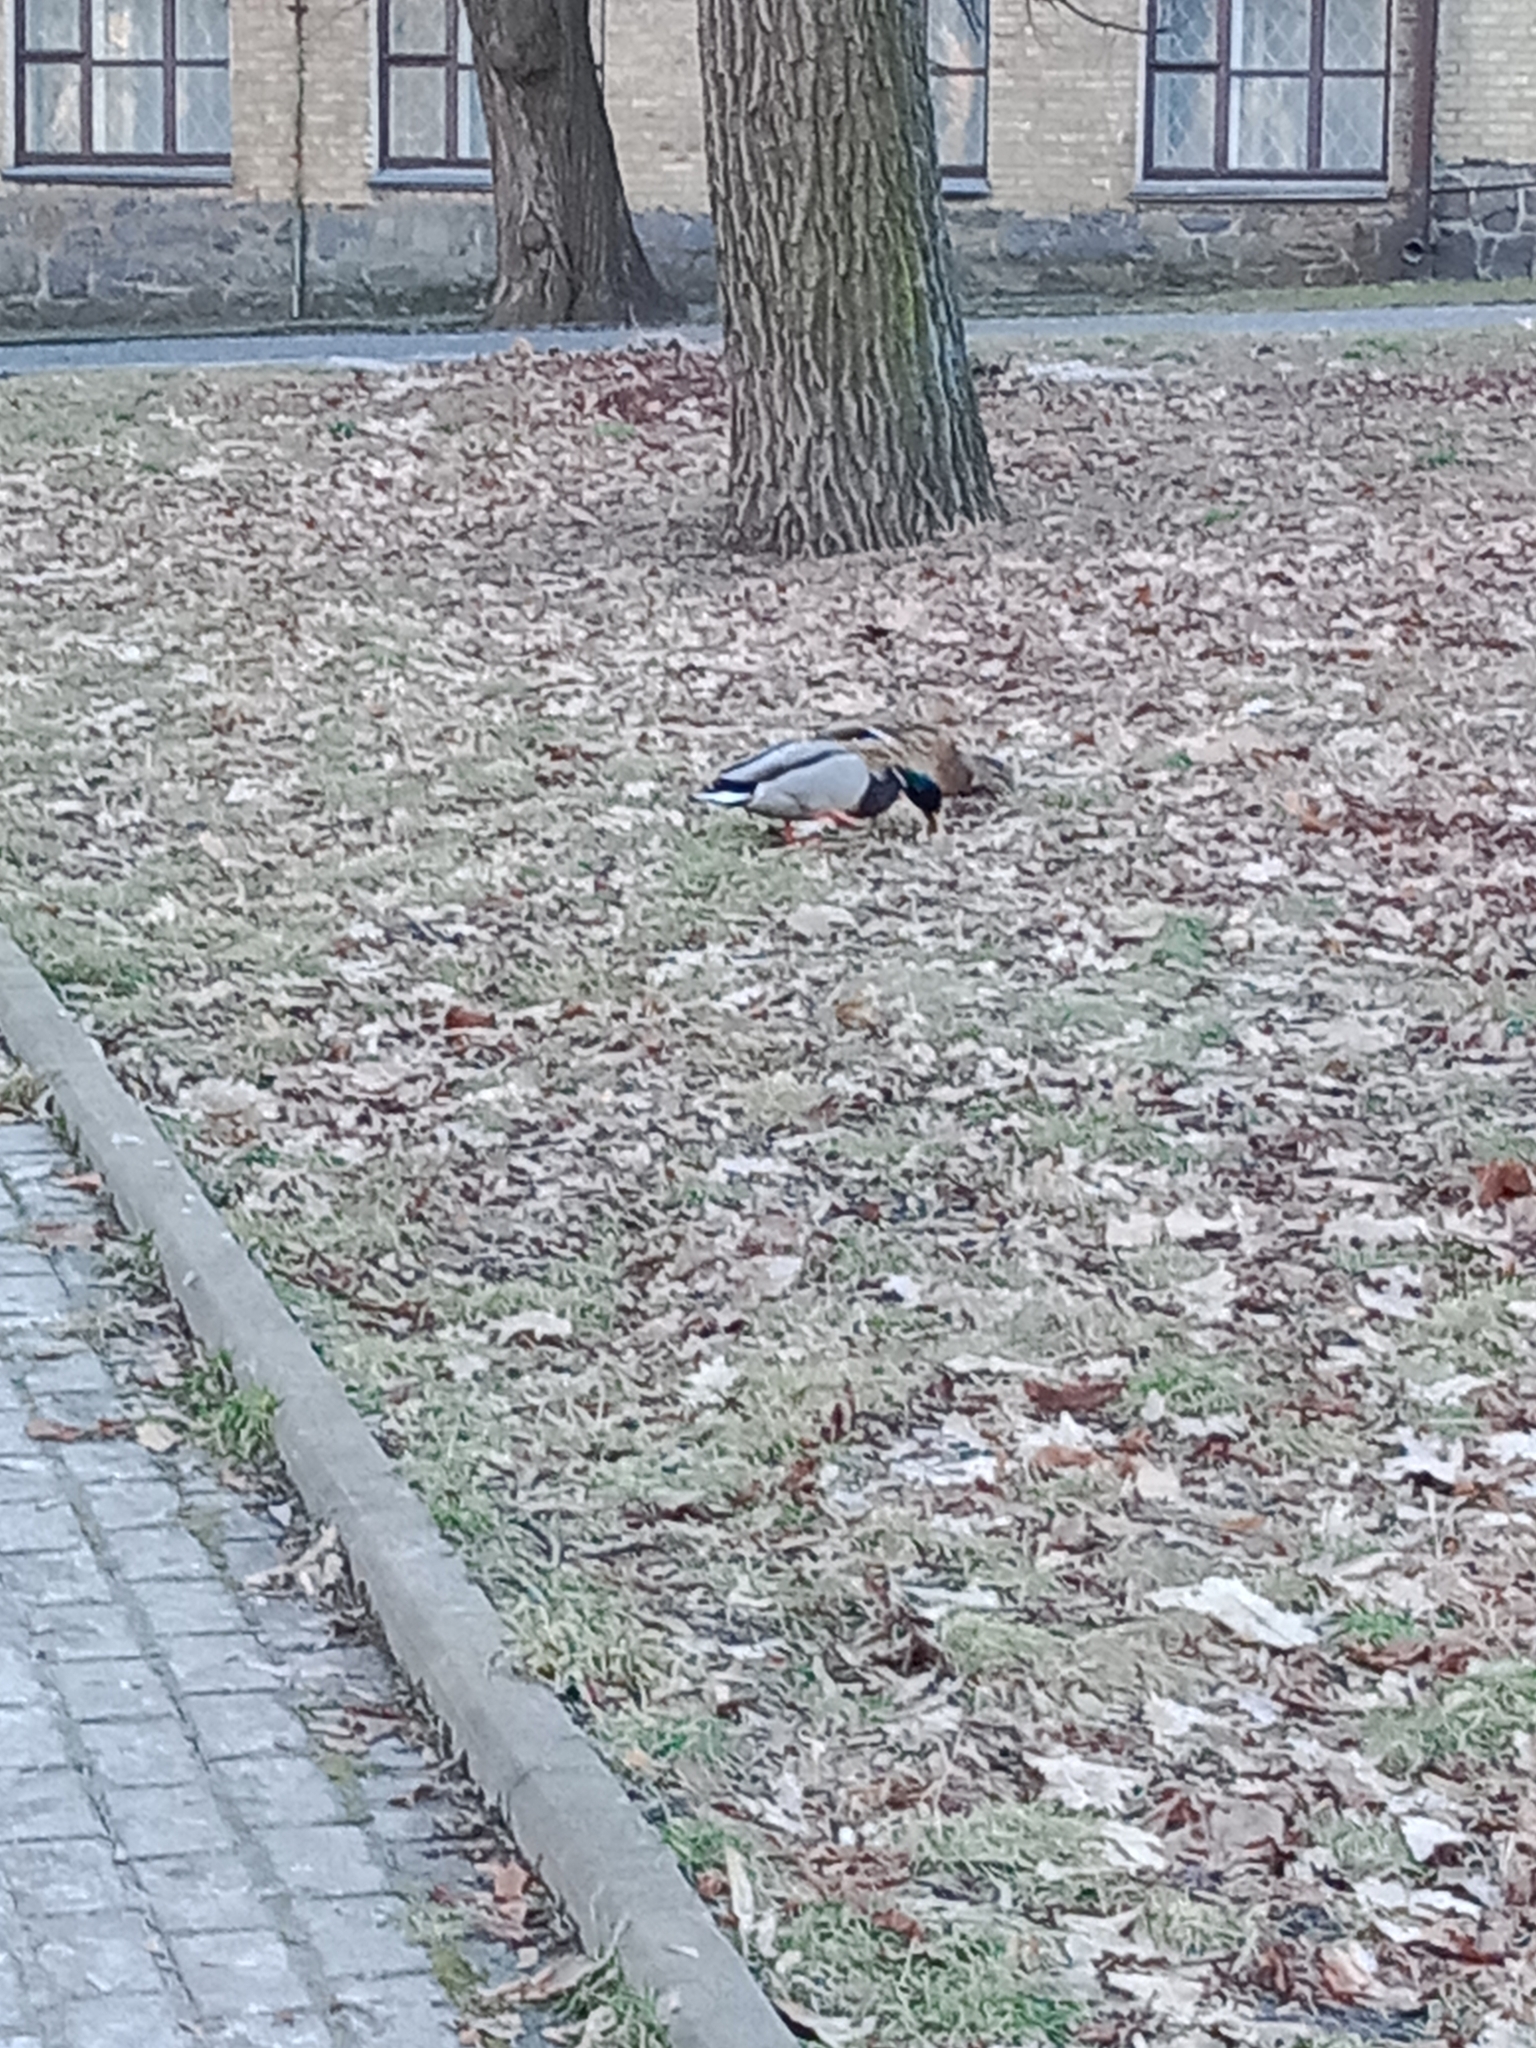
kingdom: Animalia
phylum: Chordata
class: Aves
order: Anseriformes
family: Anatidae
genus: Anas
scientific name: Anas platyrhynchos
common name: Mallard
